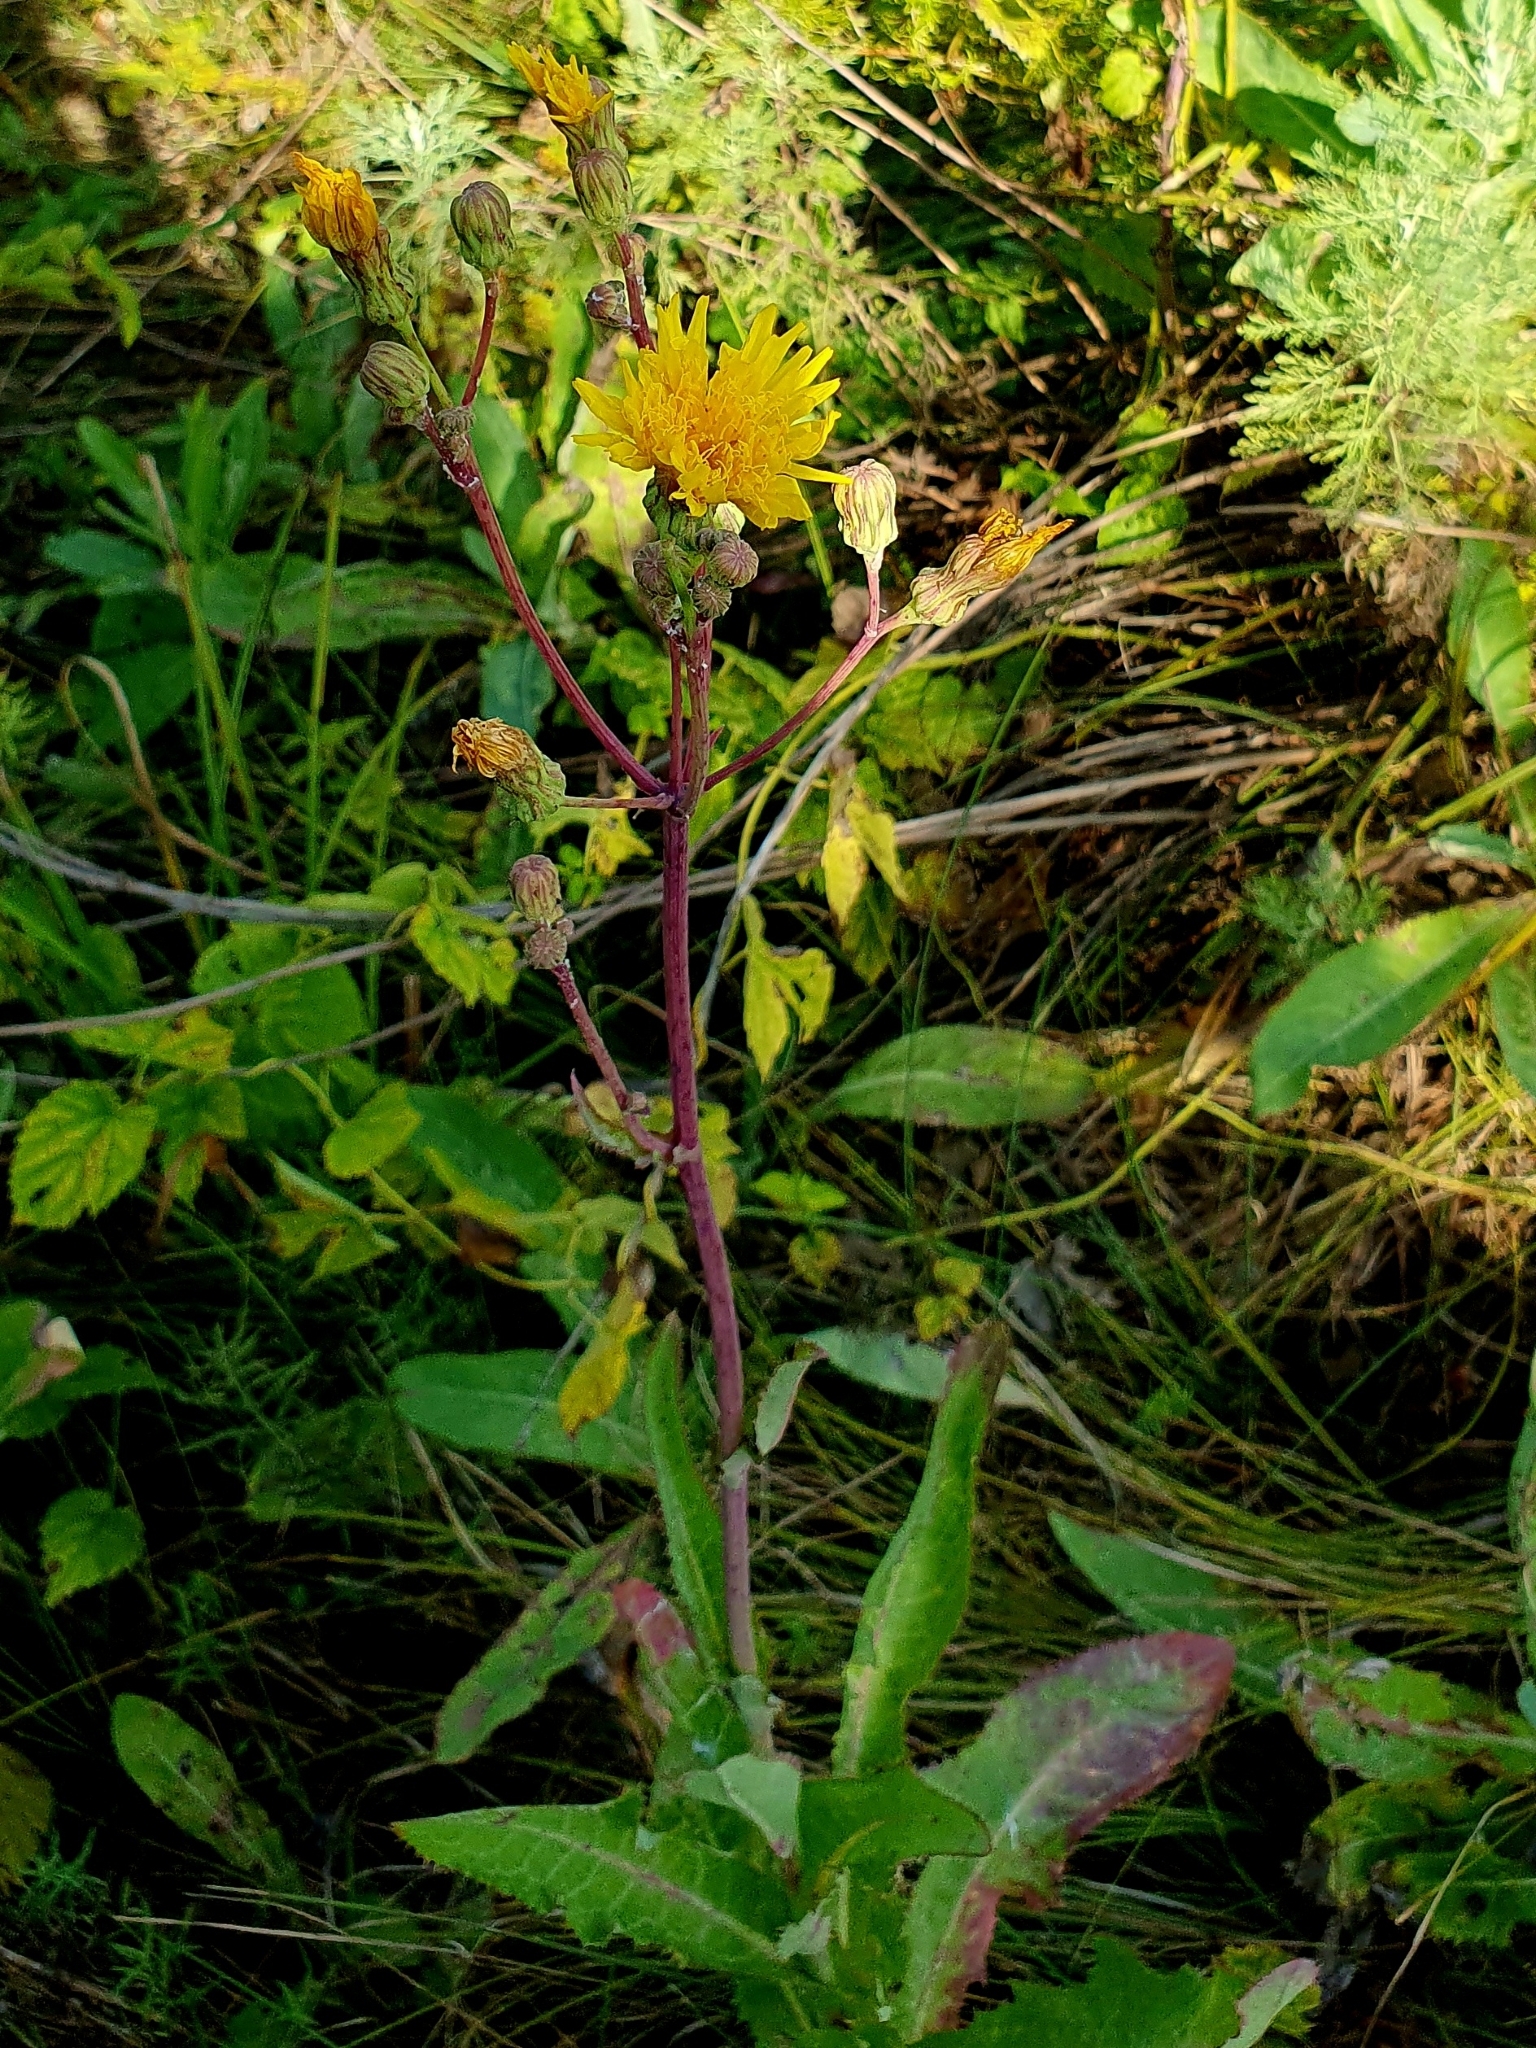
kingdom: Plantae
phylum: Tracheophyta
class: Magnoliopsida
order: Asterales
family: Asteraceae
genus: Sonchus
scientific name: Sonchus arvensis
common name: Perennial sow-thistle
